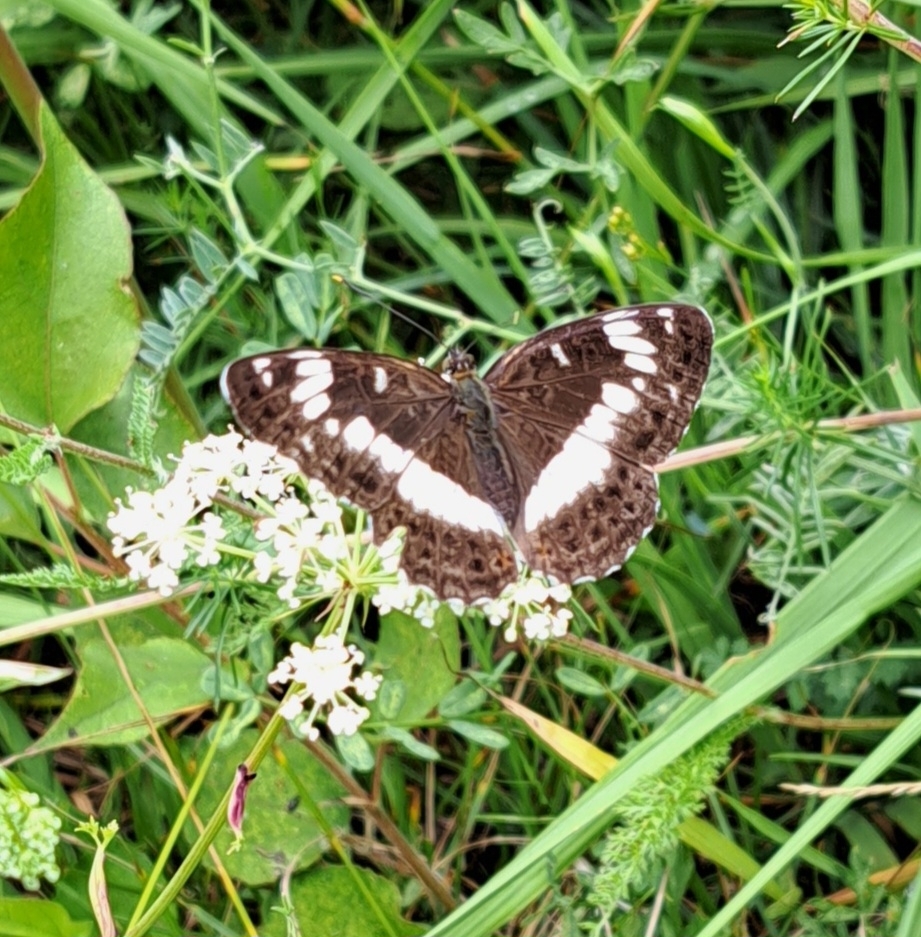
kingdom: Animalia
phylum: Arthropoda
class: Insecta
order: Lepidoptera
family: Nymphalidae
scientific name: Nymphalidae
